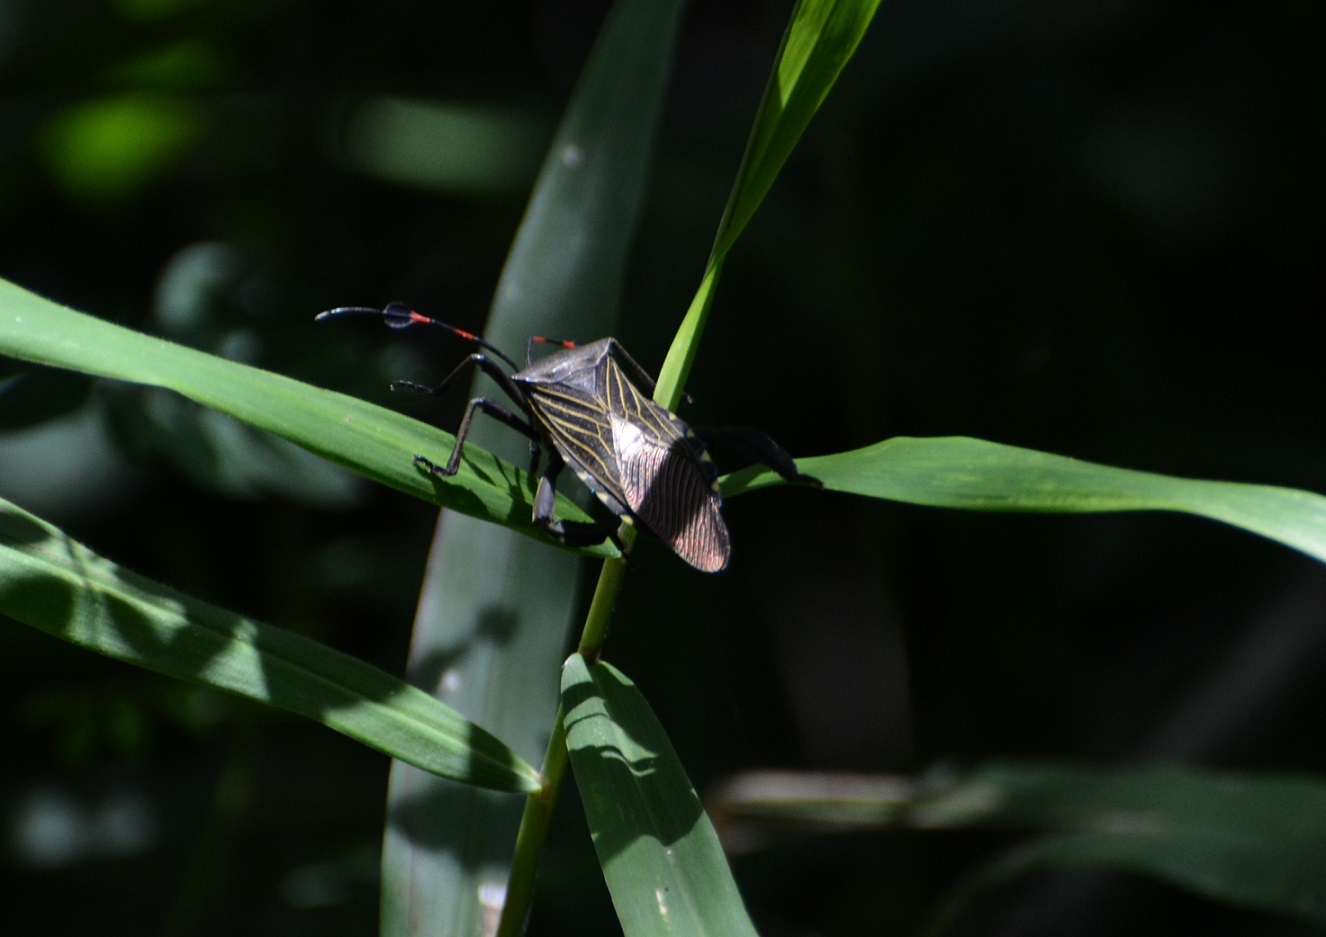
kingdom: Animalia
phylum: Arthropoda
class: Insecta
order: Hemiptera
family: Coreidae
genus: Thasus
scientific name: Thasus acutangulus
